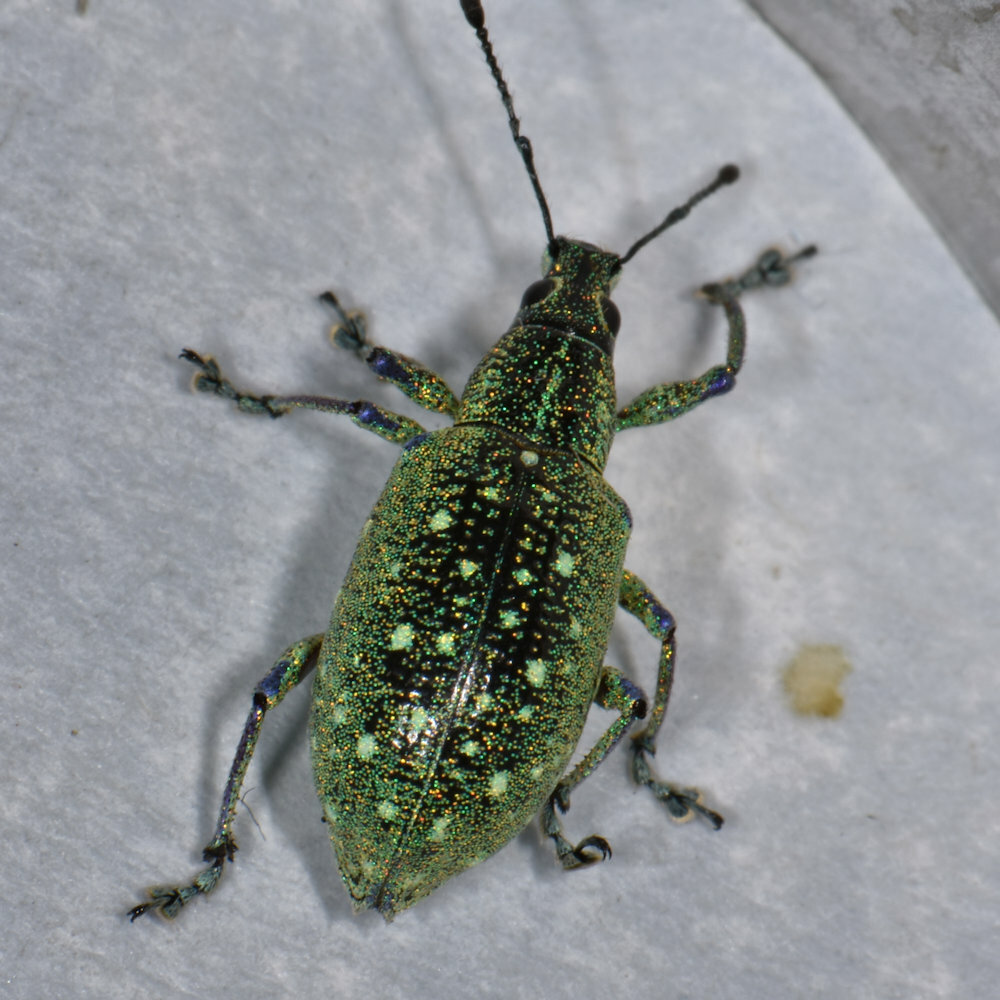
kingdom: Animalia
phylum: Arthropoda
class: Insecta
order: Coleoptera
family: Curculionidae
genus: Exophthalmus
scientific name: Exophthalmus jekelianus
